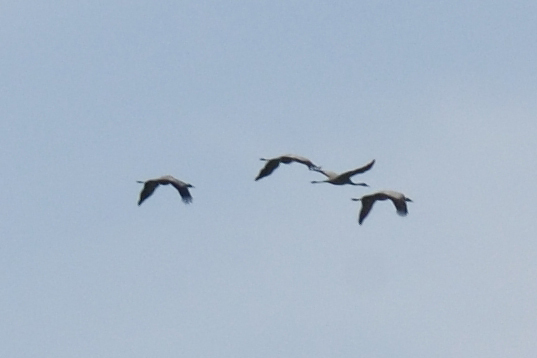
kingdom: Animalia
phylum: Chordata
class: Aves
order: Gruiformes
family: Gruidae
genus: Grus
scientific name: Grus grus
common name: Common crane
